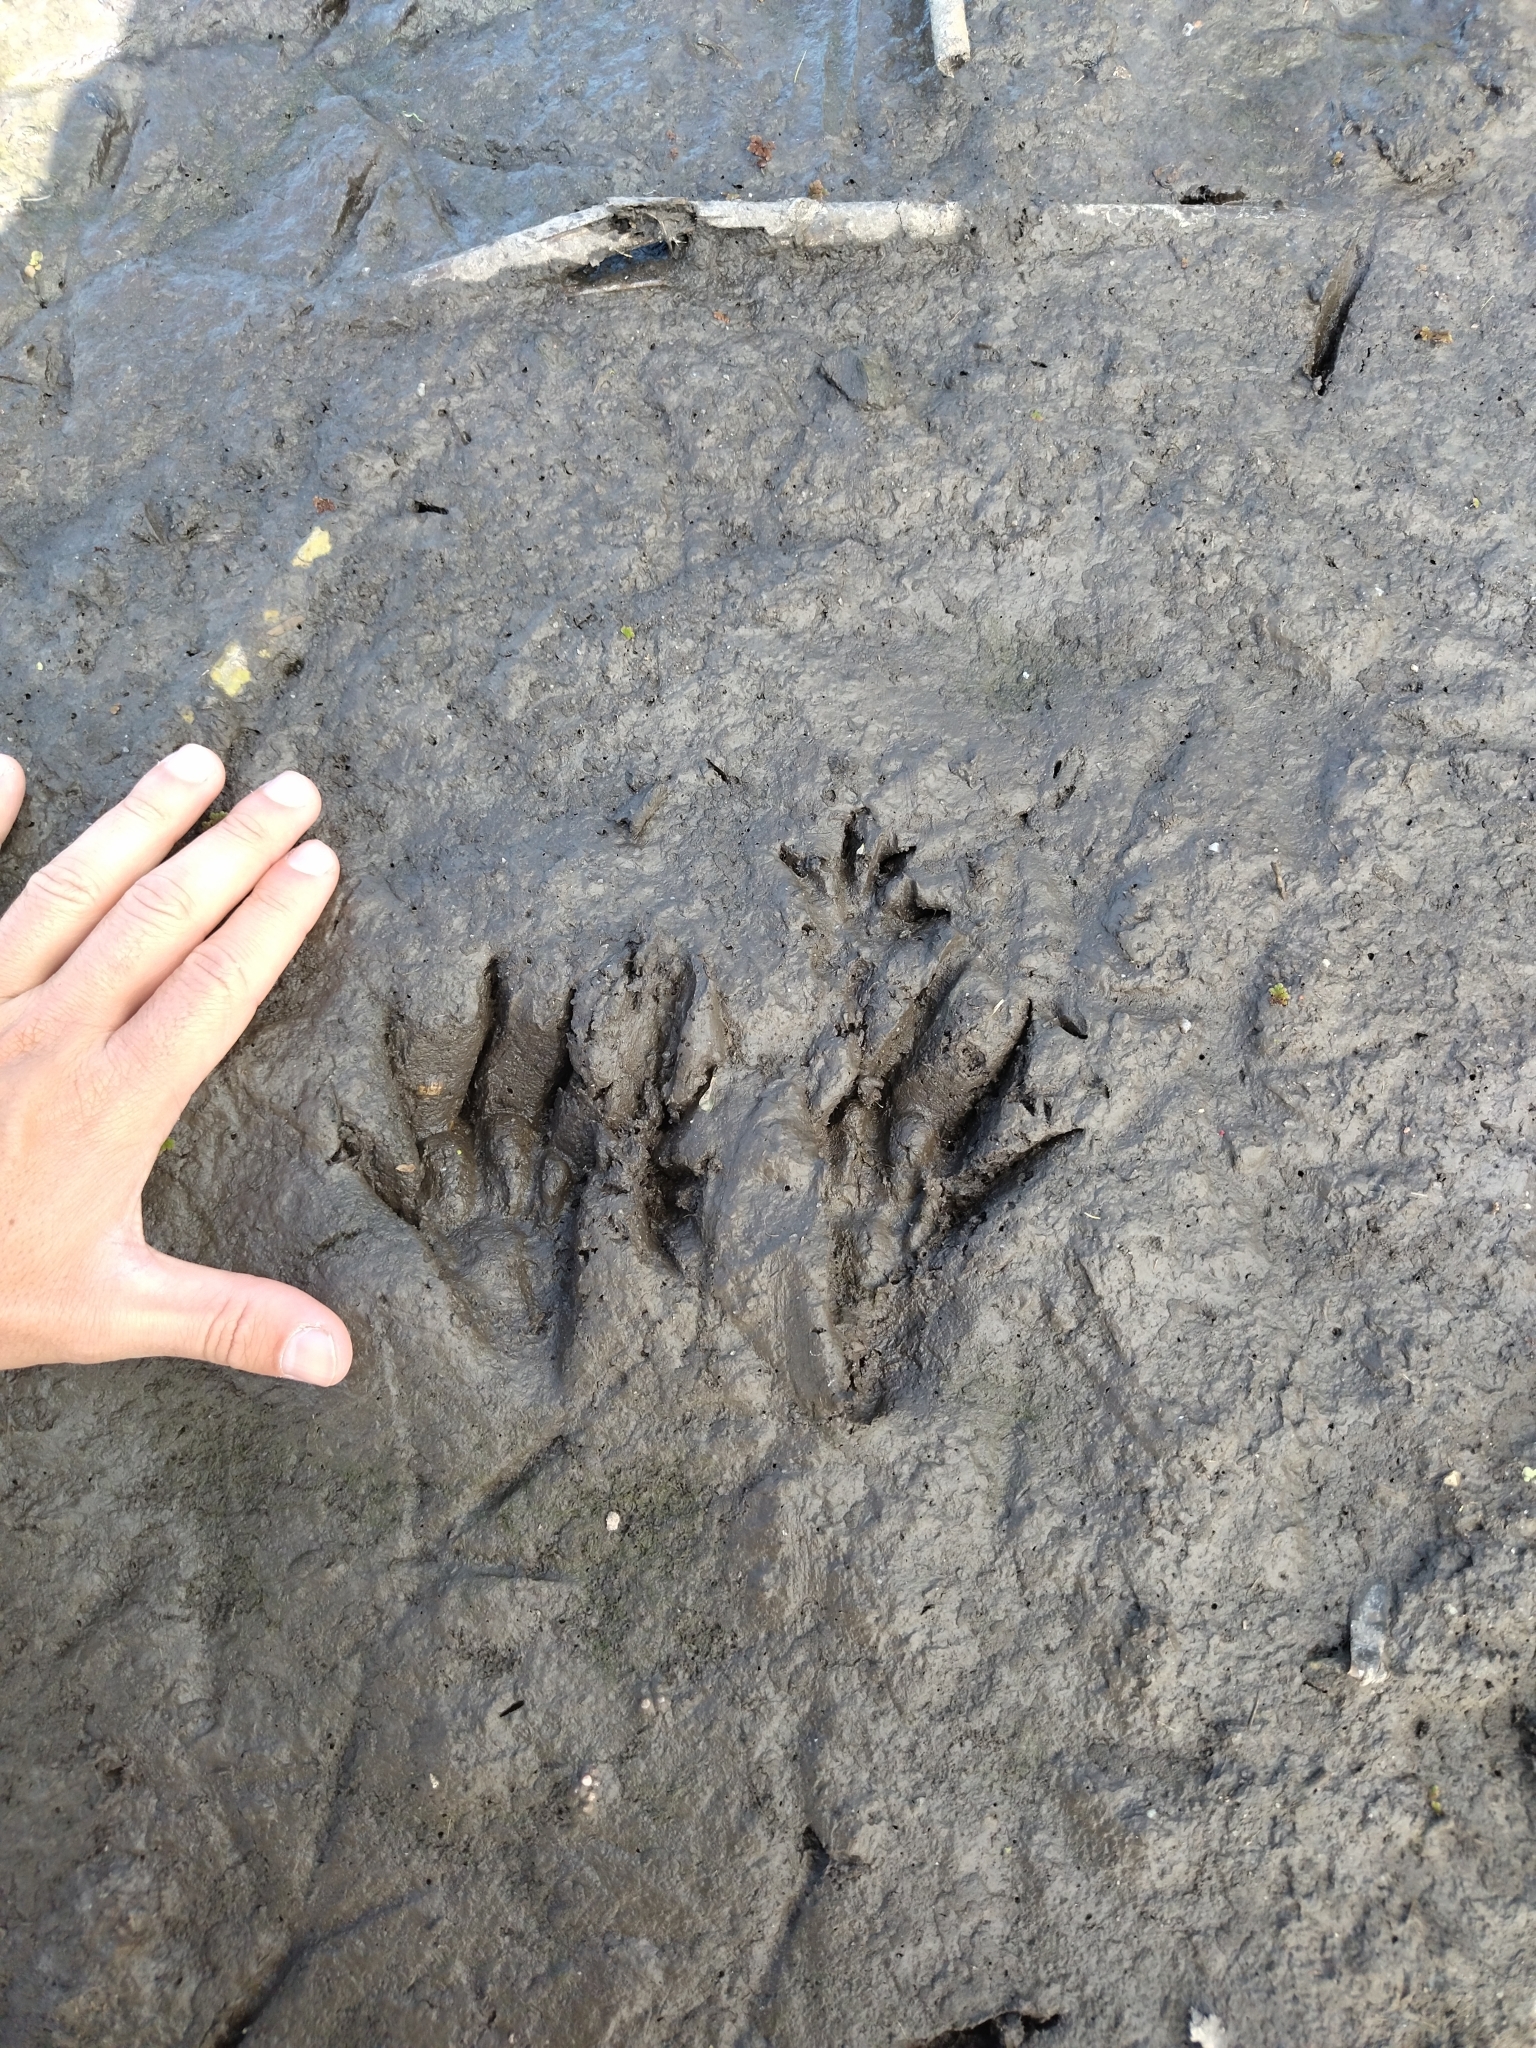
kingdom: Animalia
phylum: Chordata
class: Mammalia
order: Rodentia
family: Myocastoridae
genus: Myocastor
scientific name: Myocastor coypus
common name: Coypu
